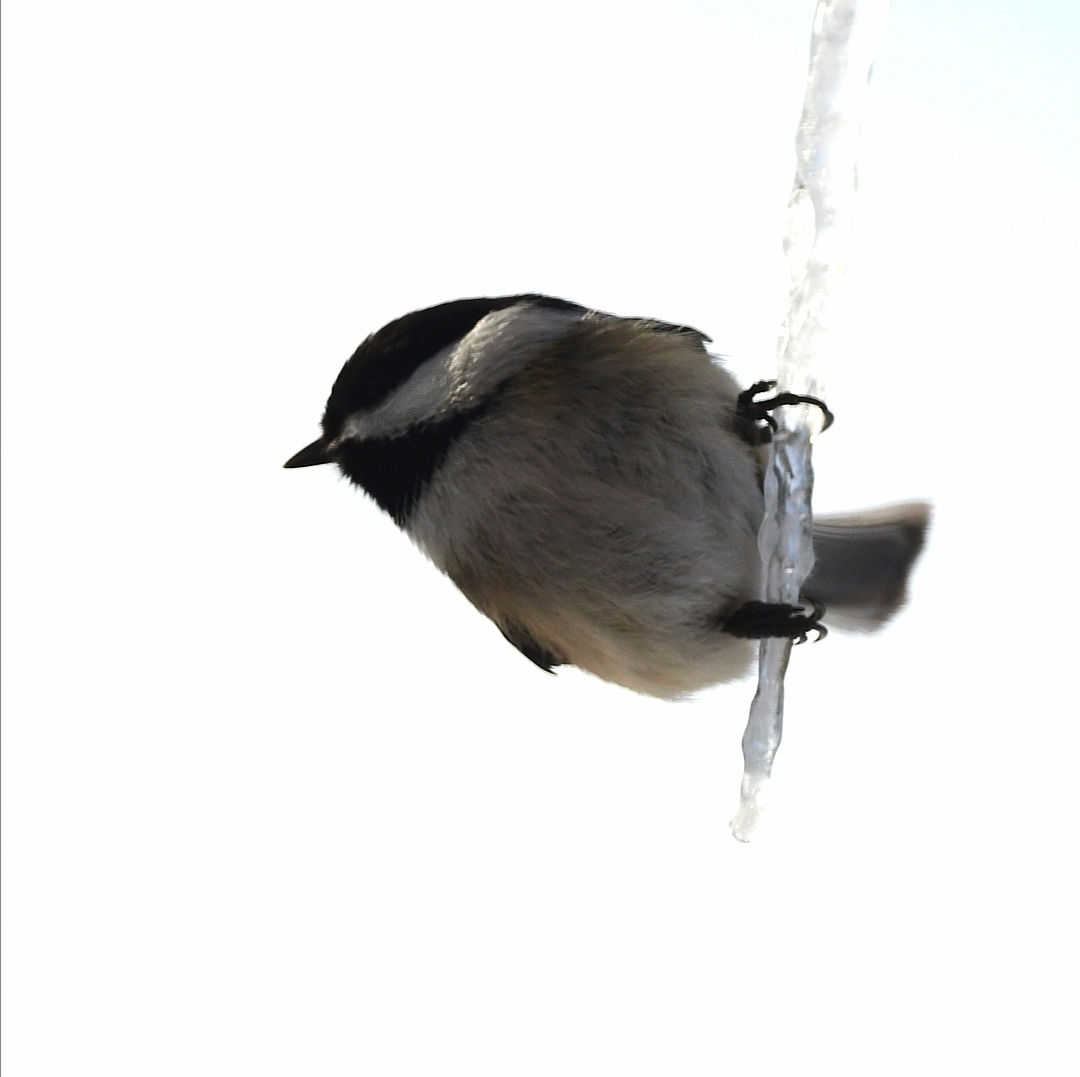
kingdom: Animalia
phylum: Chordata
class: Aves
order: Passeriformes
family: Paridae
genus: Poecile
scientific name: Poecile atricapillus
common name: Black-capped chickadee
